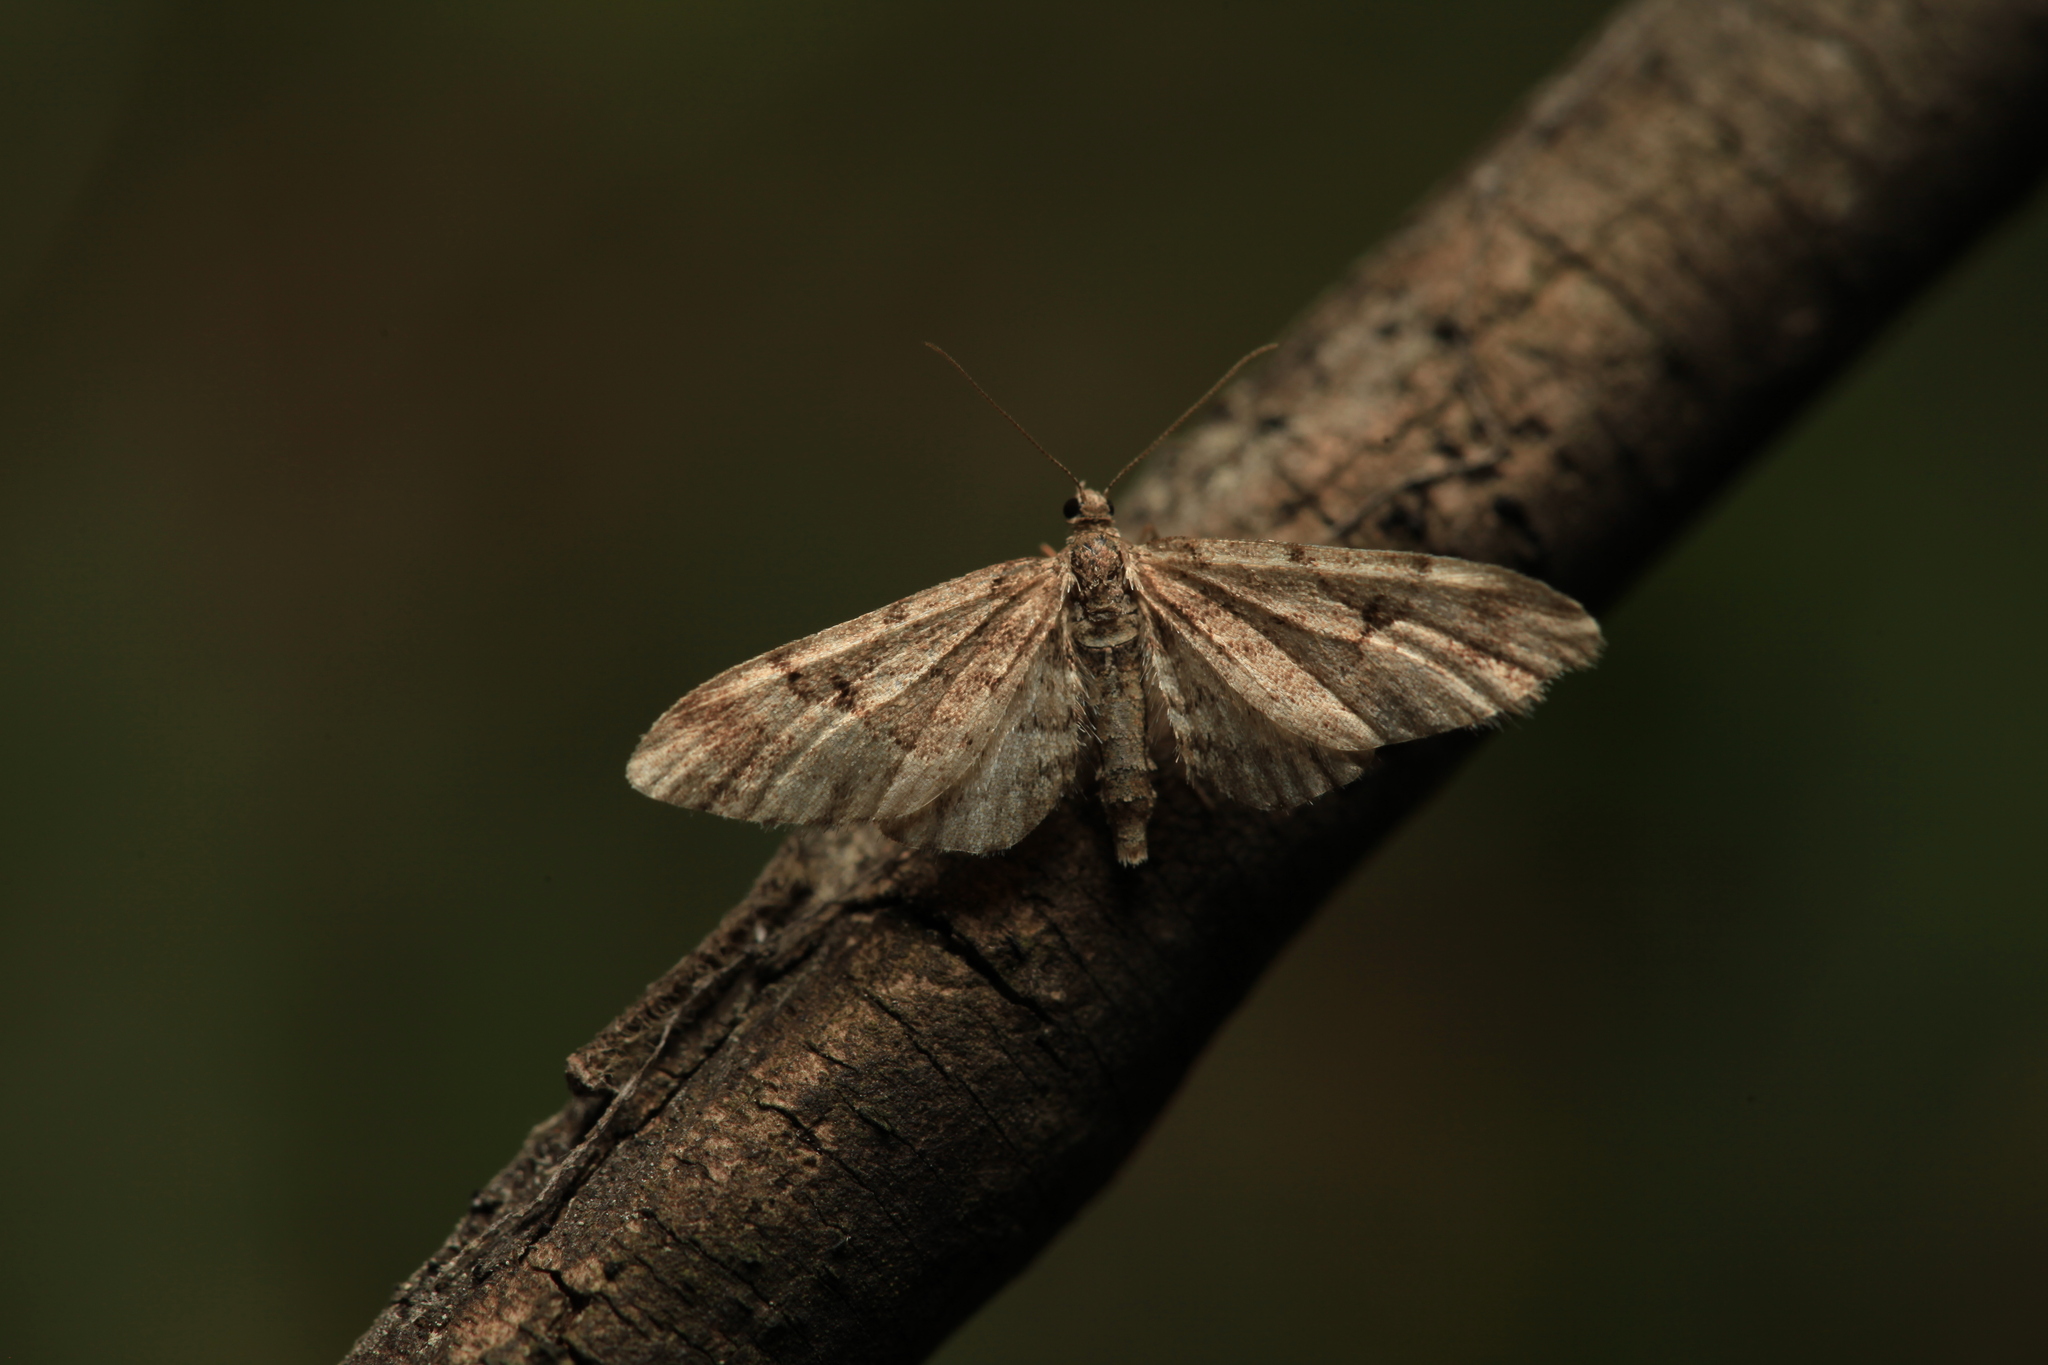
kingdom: Animalia
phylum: Arthropoda
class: Insecta
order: Lepidoptera
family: Geometridae
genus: Eupithecia
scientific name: Eupithecia lanceata
